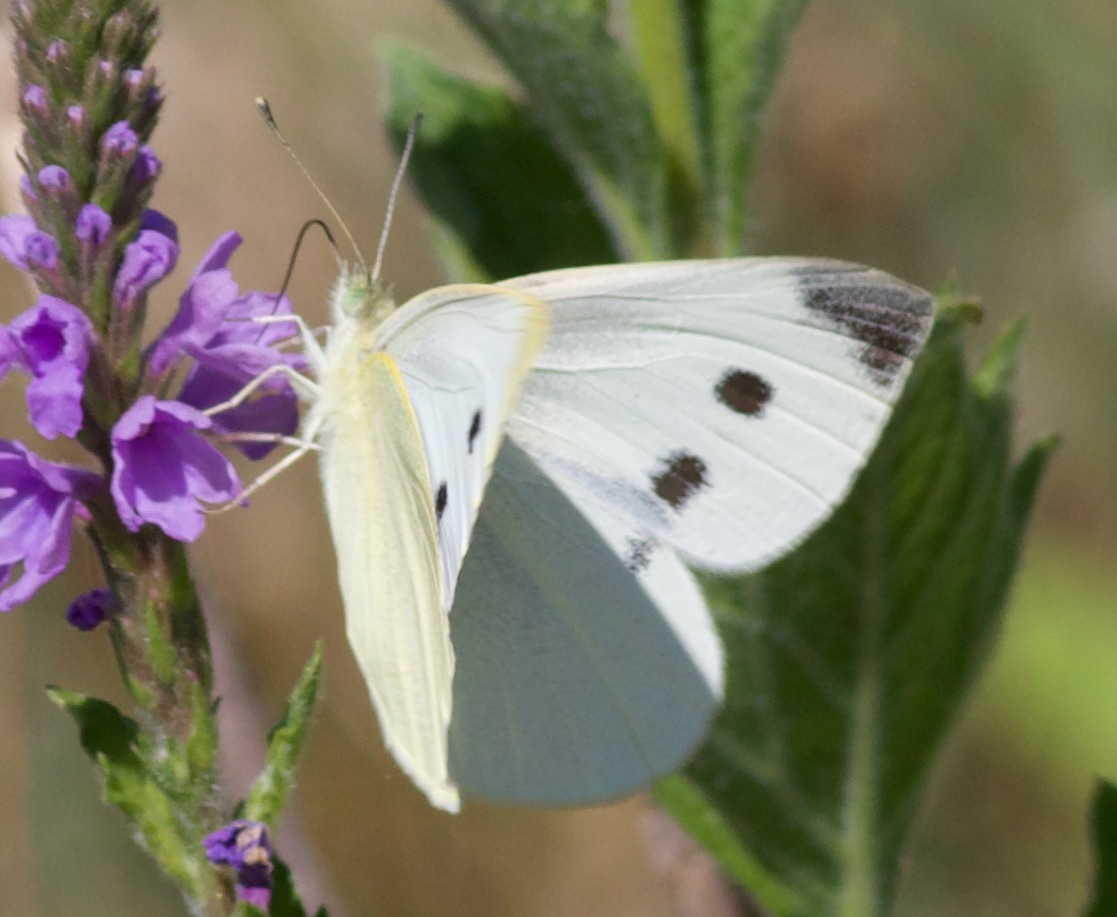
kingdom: Animalia
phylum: Arthropoda
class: Insecta
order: Lepidoptera
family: Pieridae
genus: Pieris
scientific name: Pieris rapae
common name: Small white
